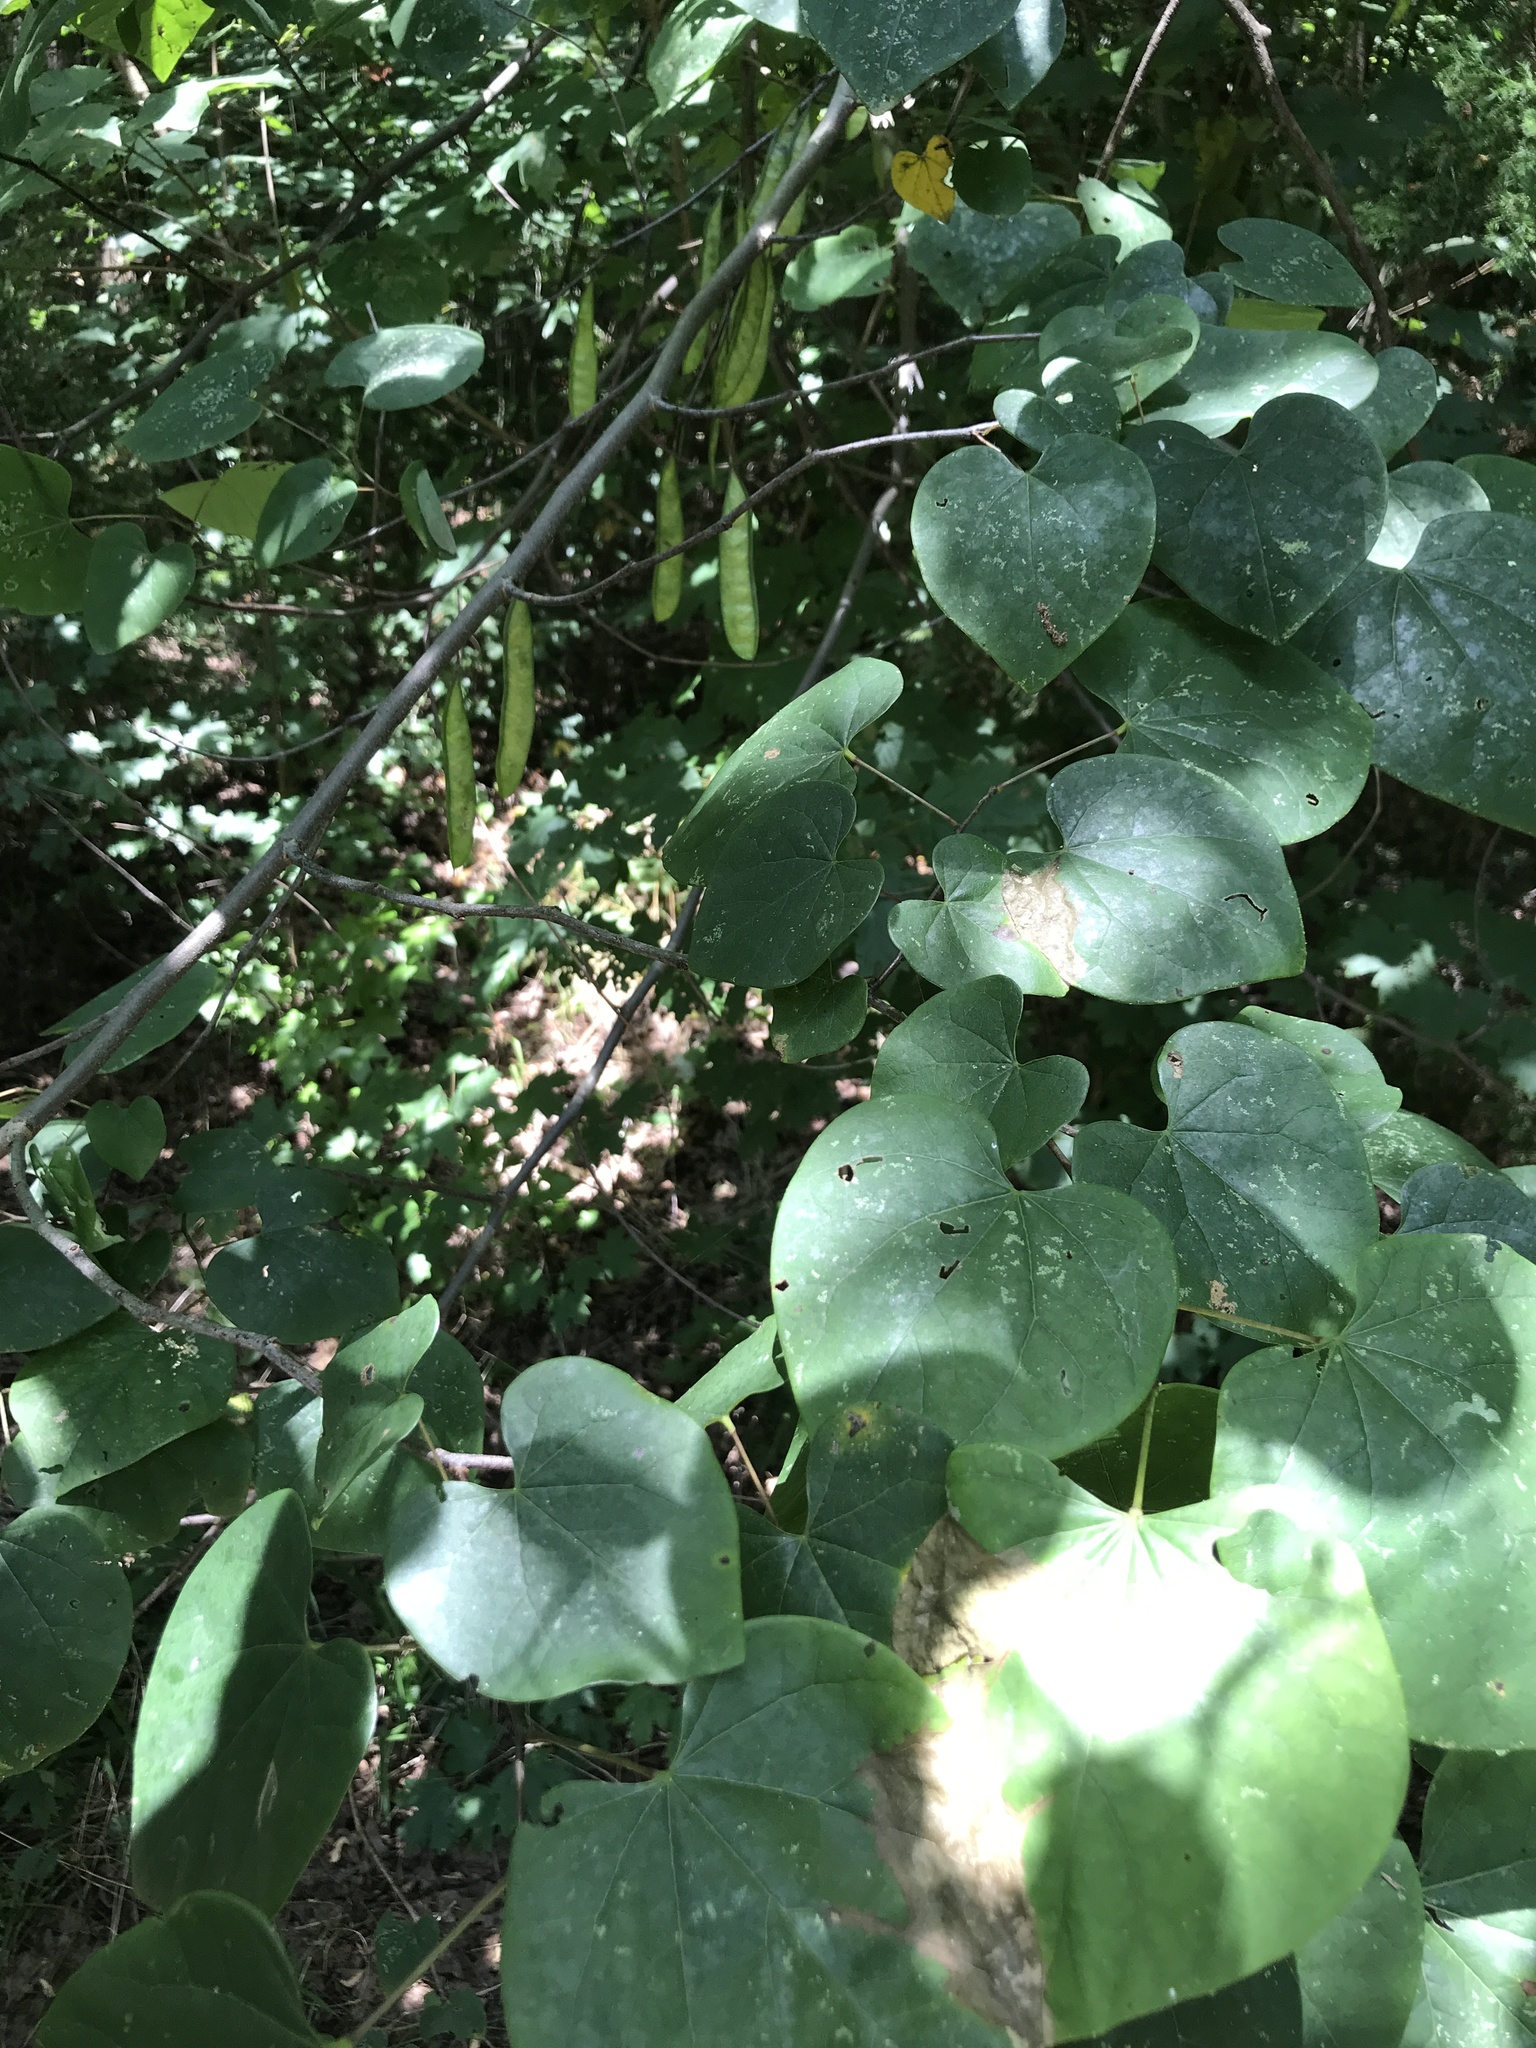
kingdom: Plantae
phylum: Tracheophyta
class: Magnoliopsida
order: Fabales
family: Fabaceae
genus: Cercis
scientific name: Cercis canadensis
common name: Eastern redbud
